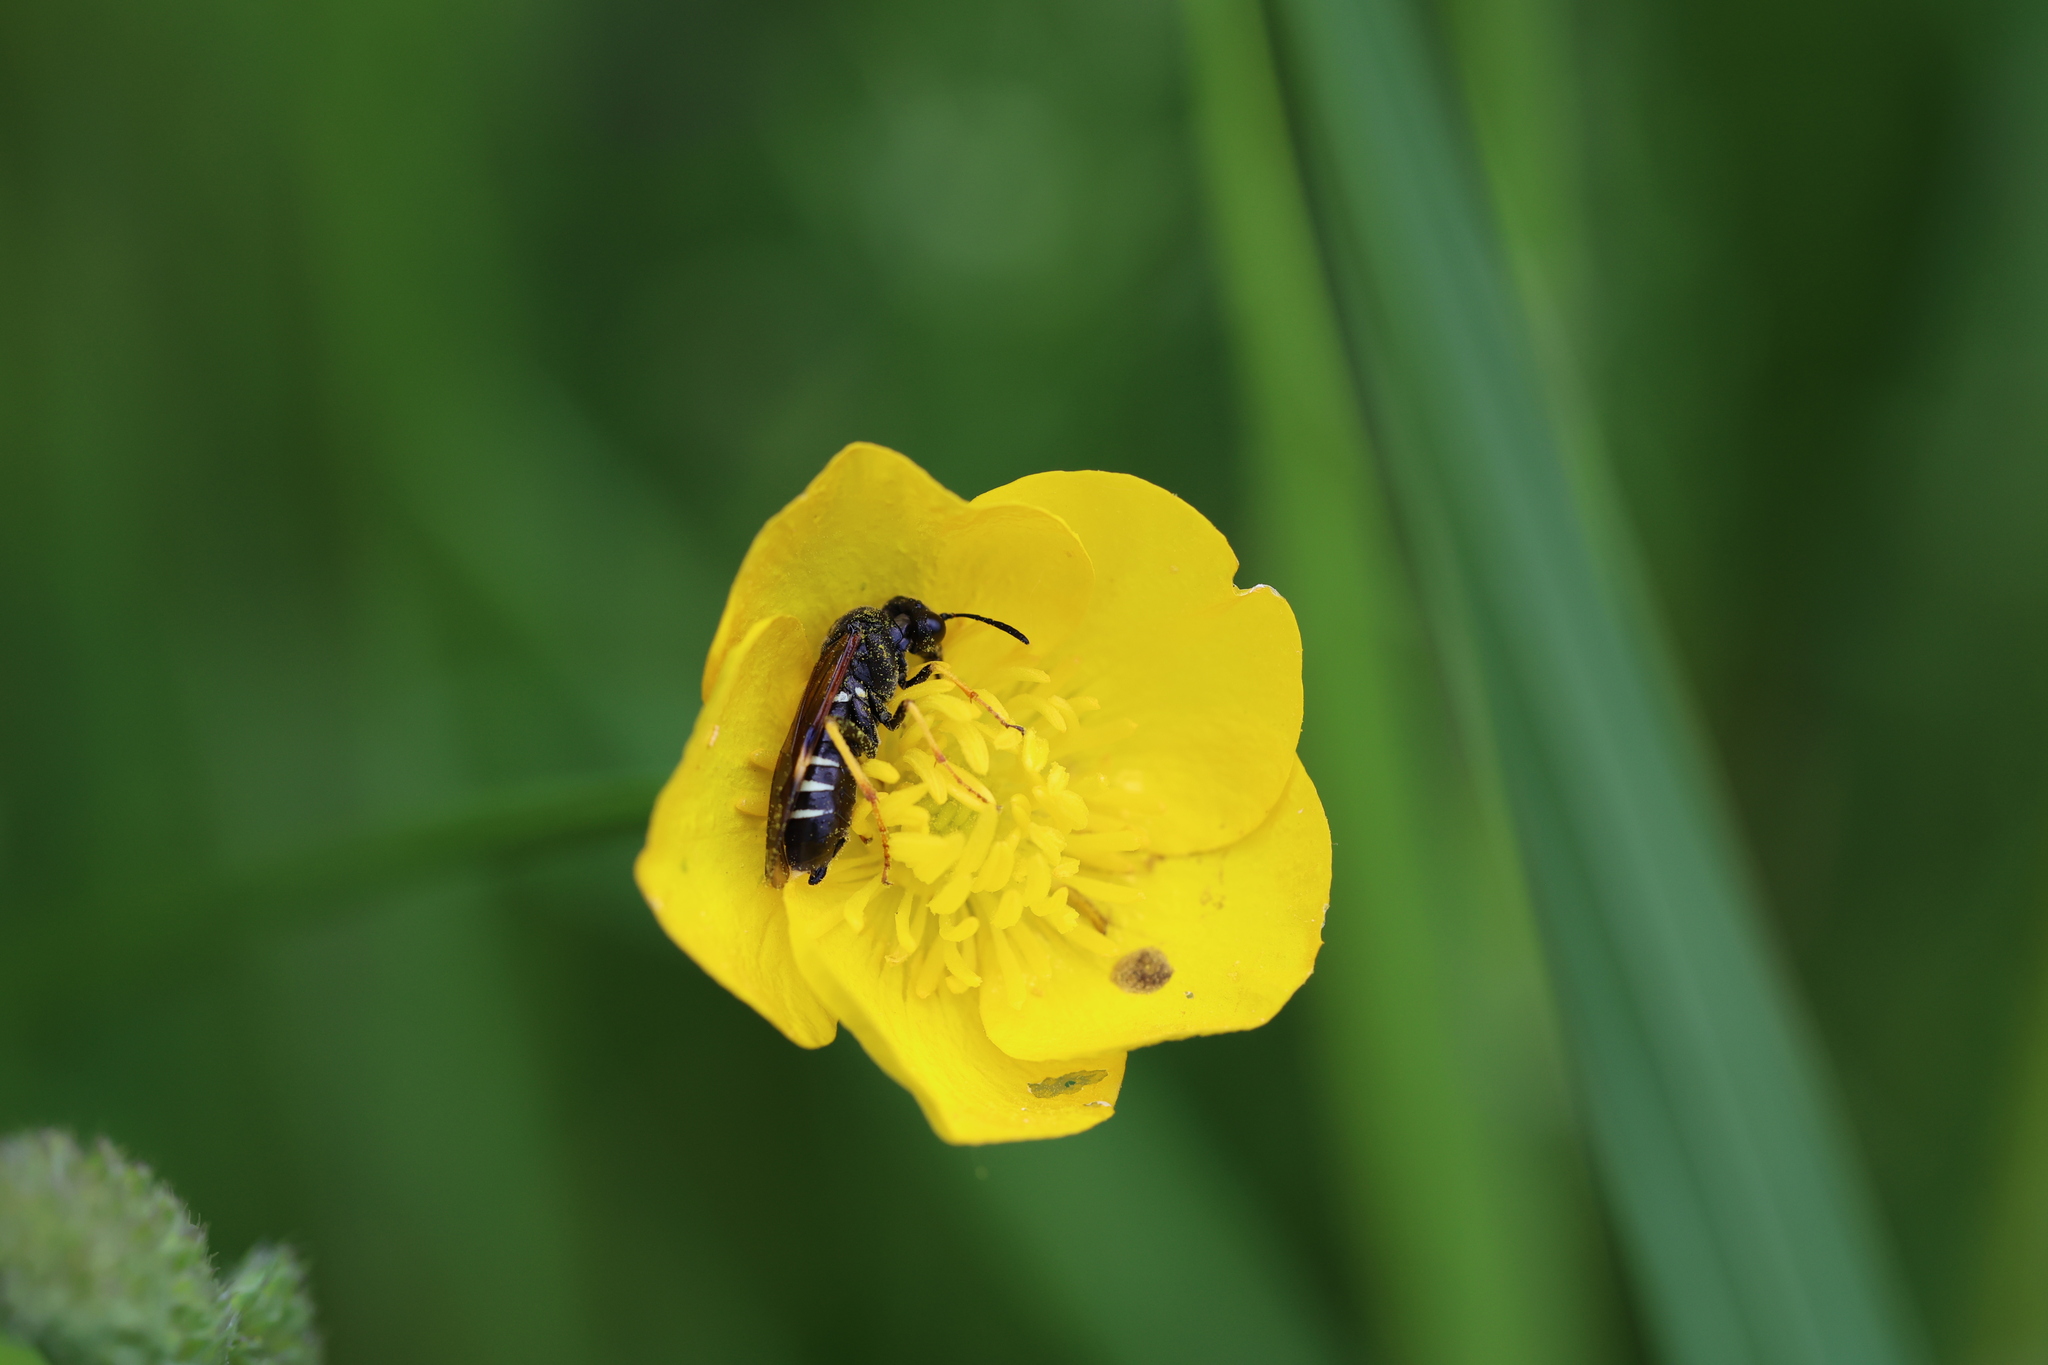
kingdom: Animalia
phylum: Arthropoda
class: Insecta
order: Hymenoptera
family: Tenthredinidae
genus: Tenthredo
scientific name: Tenthredo koehleri
